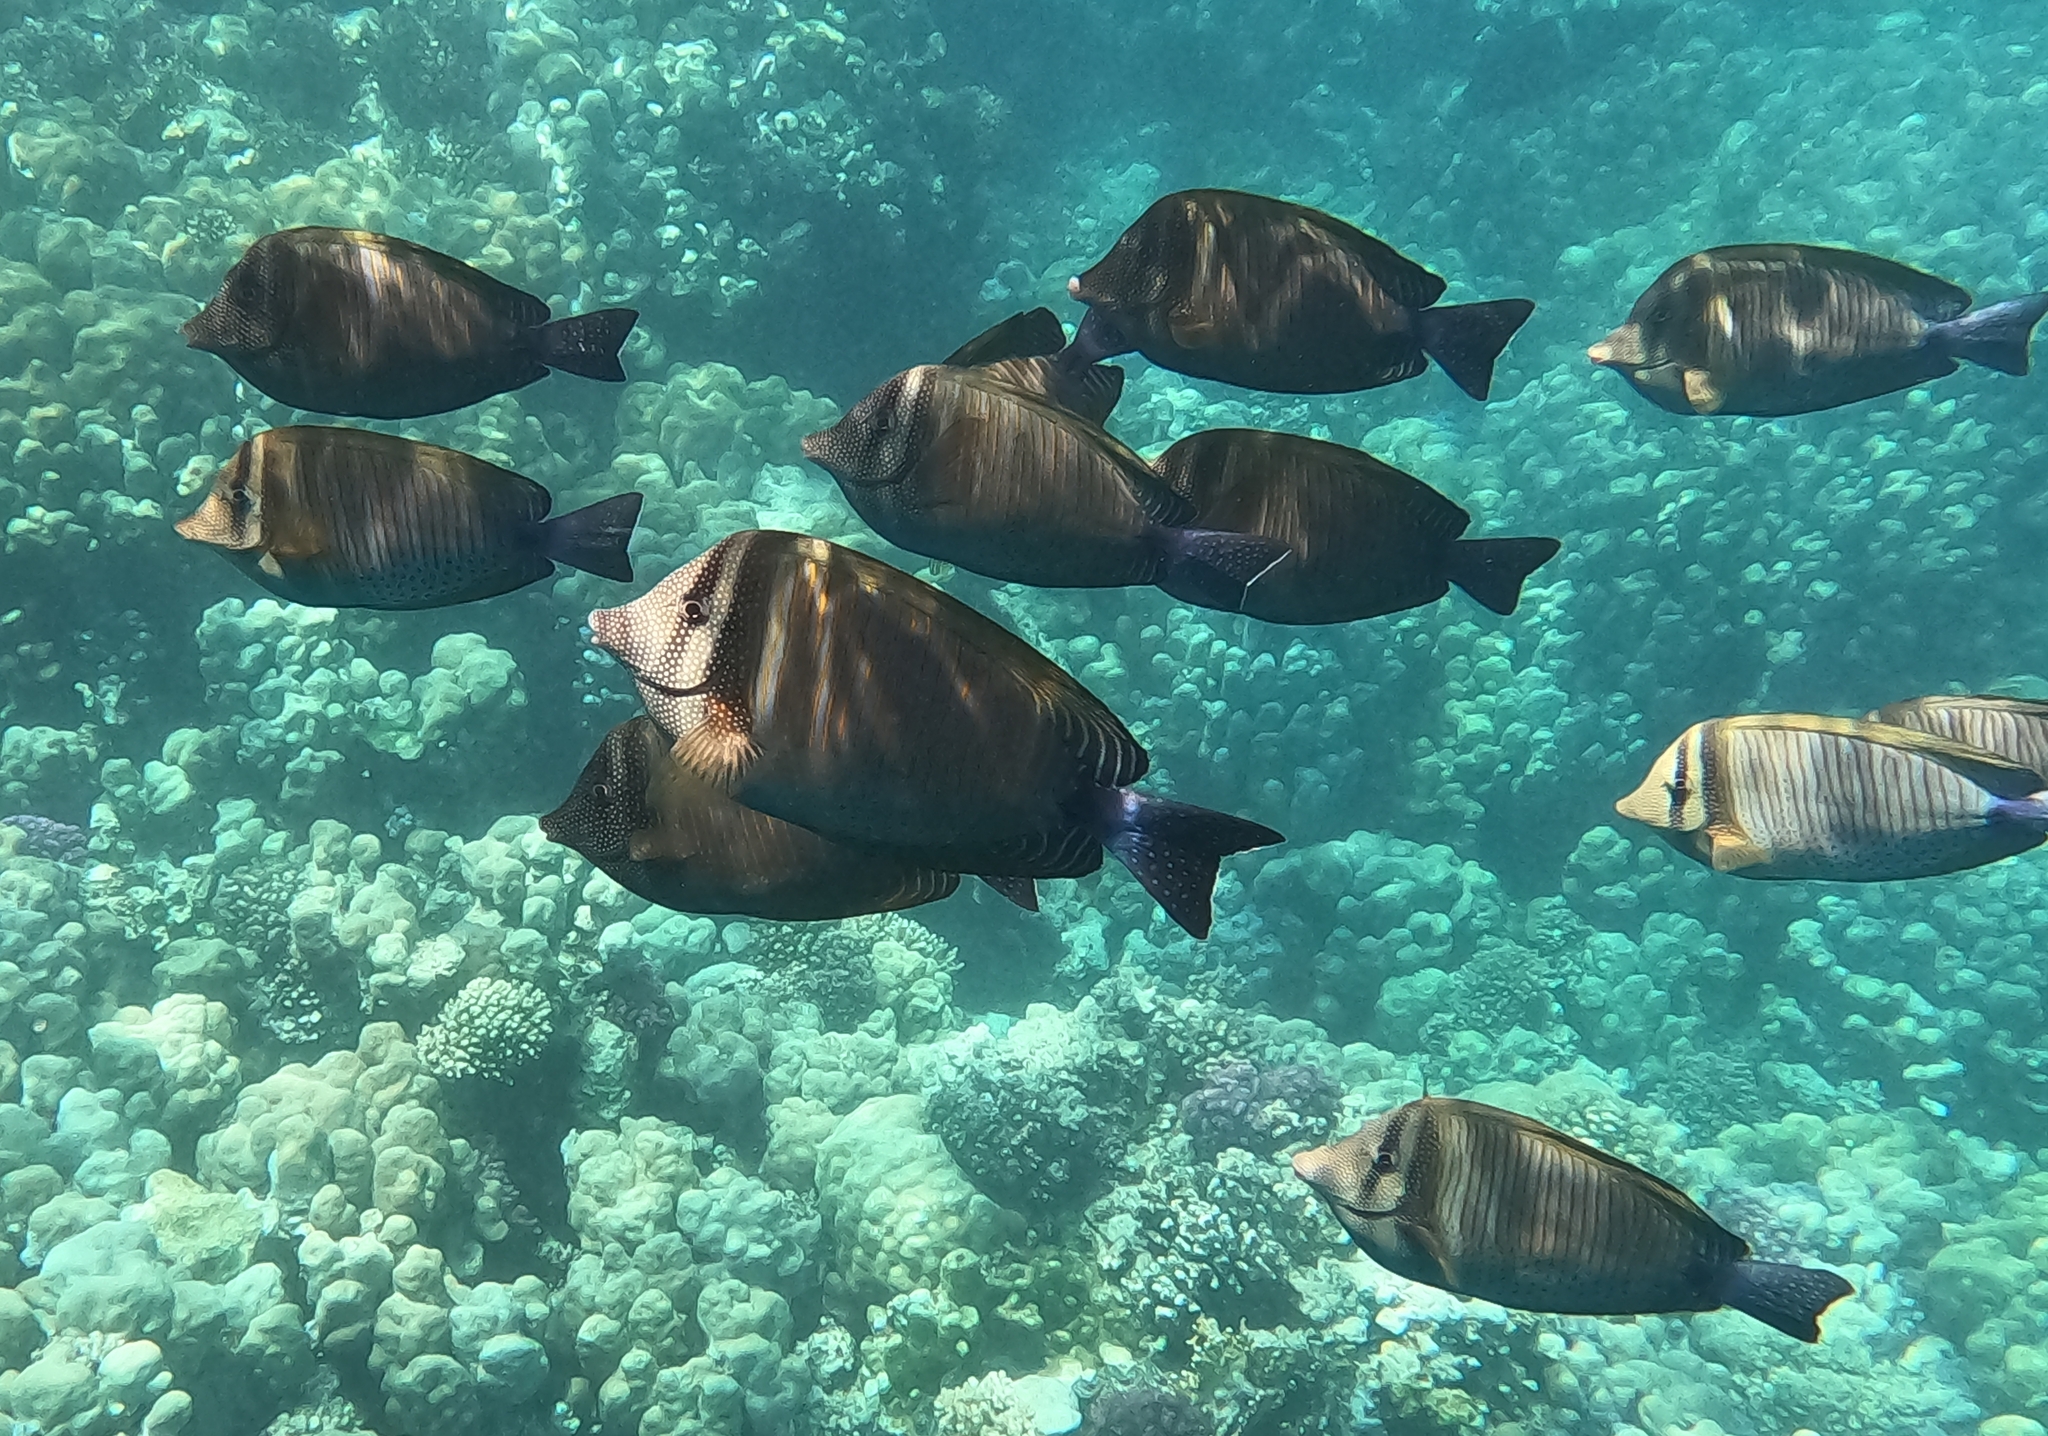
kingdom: Animalia
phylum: Chordata
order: Perciformes
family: Acanthuridae
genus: Zebrasoma
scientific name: Zebrasoma desjardinii
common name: Desjardin's sailfin tang
